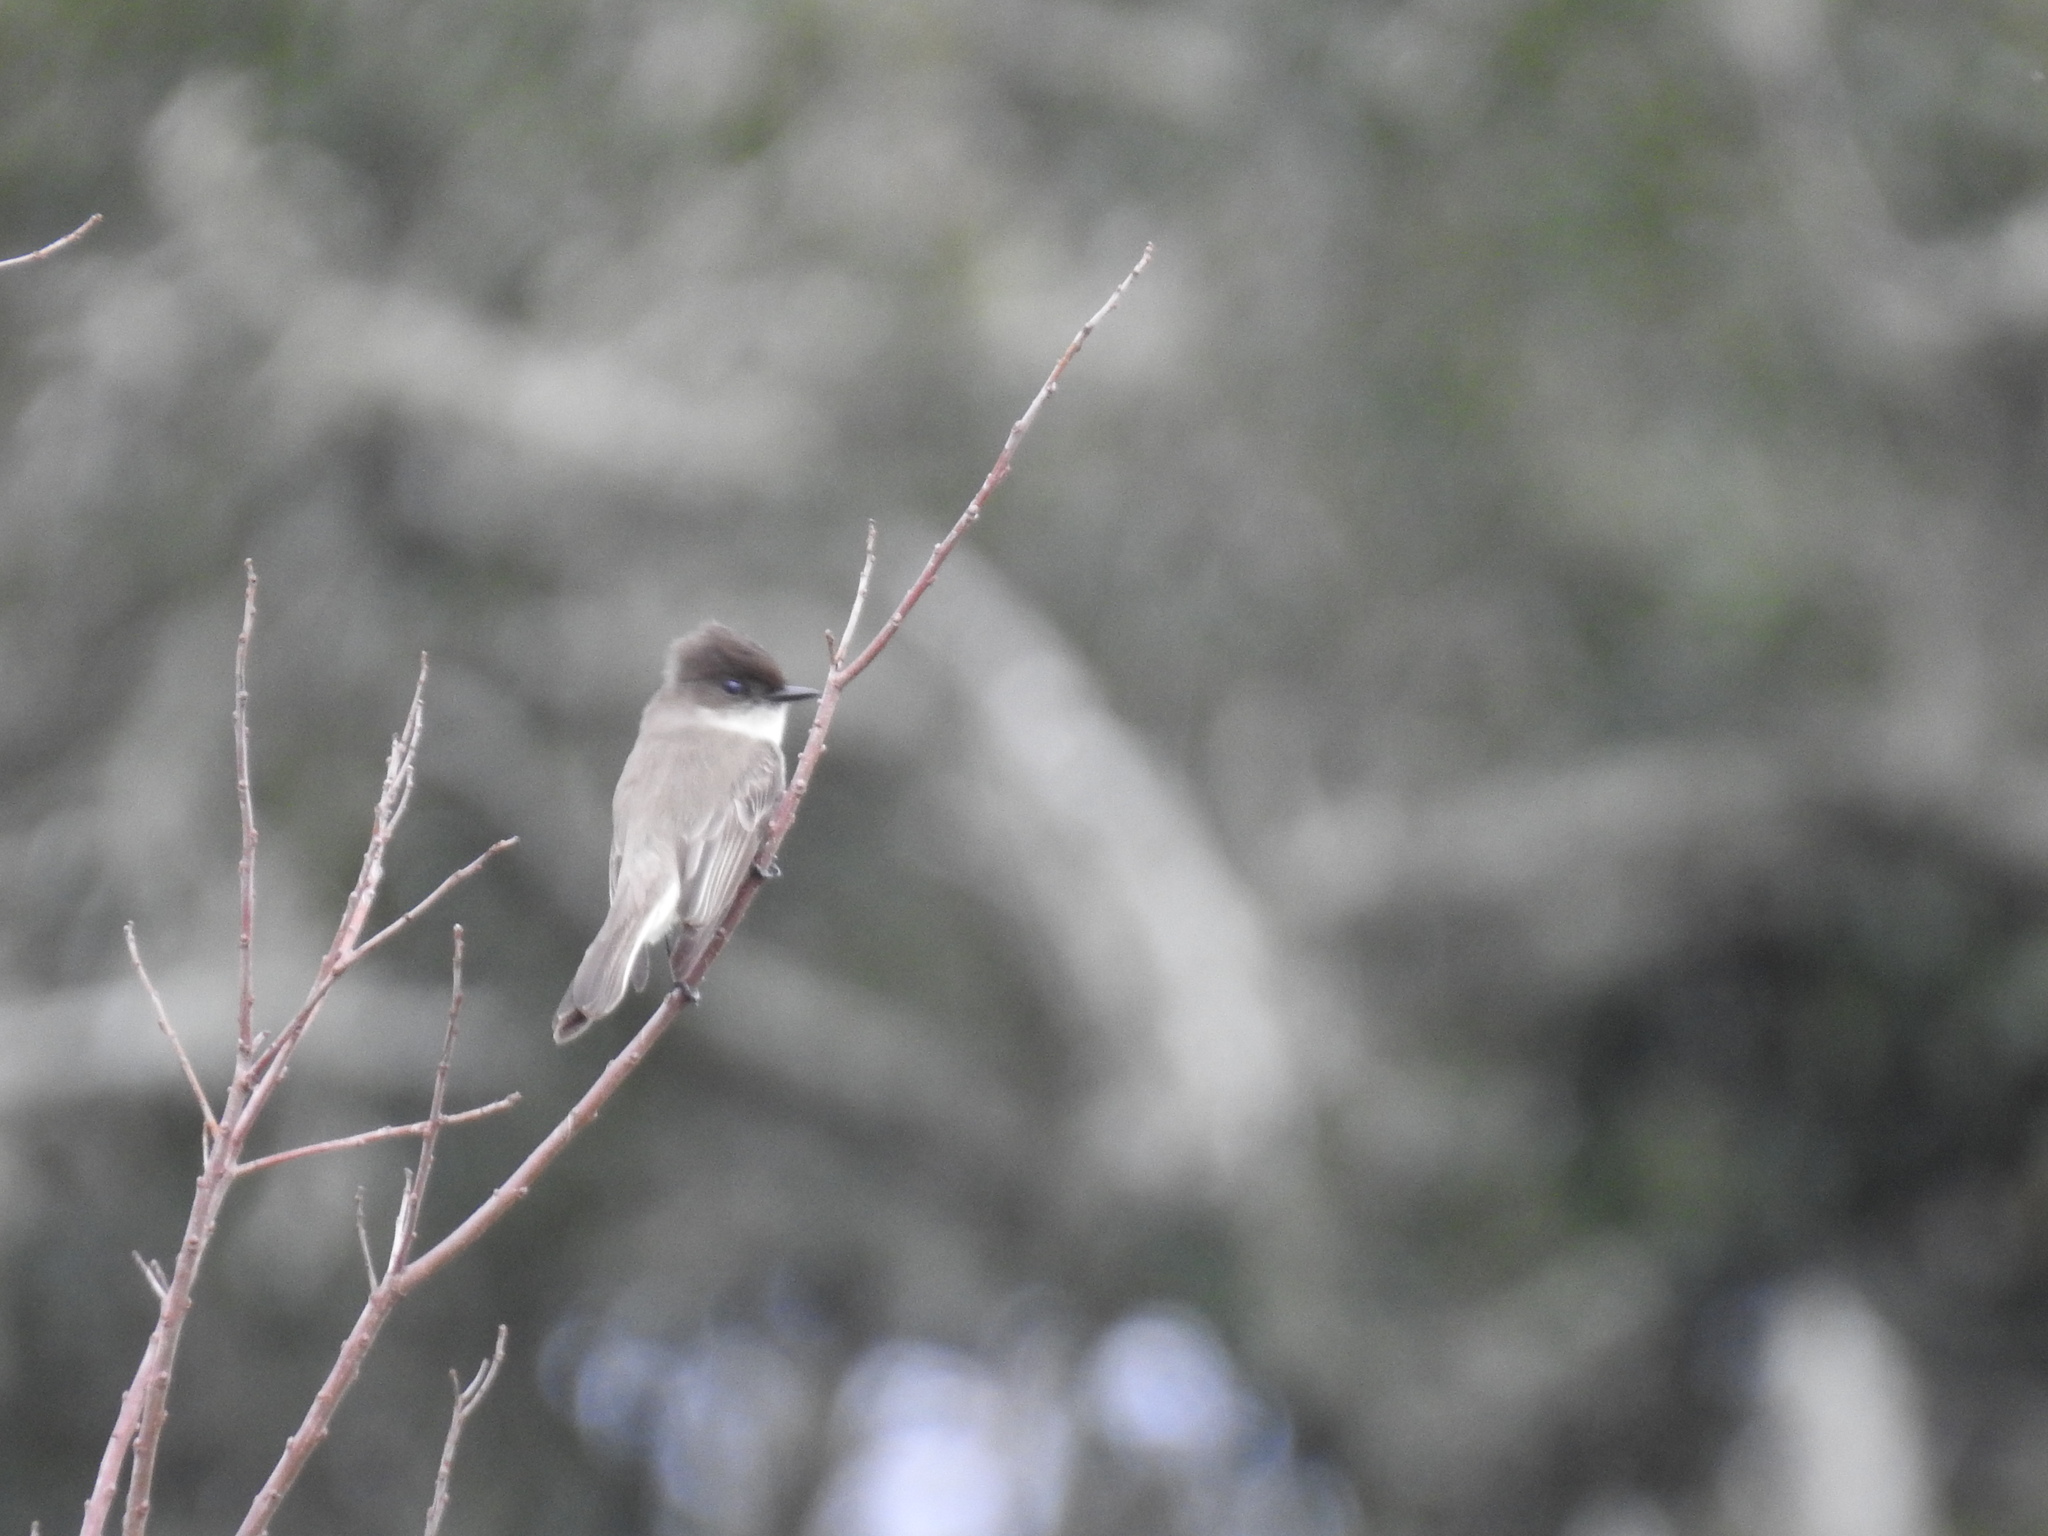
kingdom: Animalia
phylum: Chordata
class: Aves
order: Passeriformes
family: Tyrannidae
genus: Sayornis
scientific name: Sayornis phoebe
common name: Eastern phoebe
